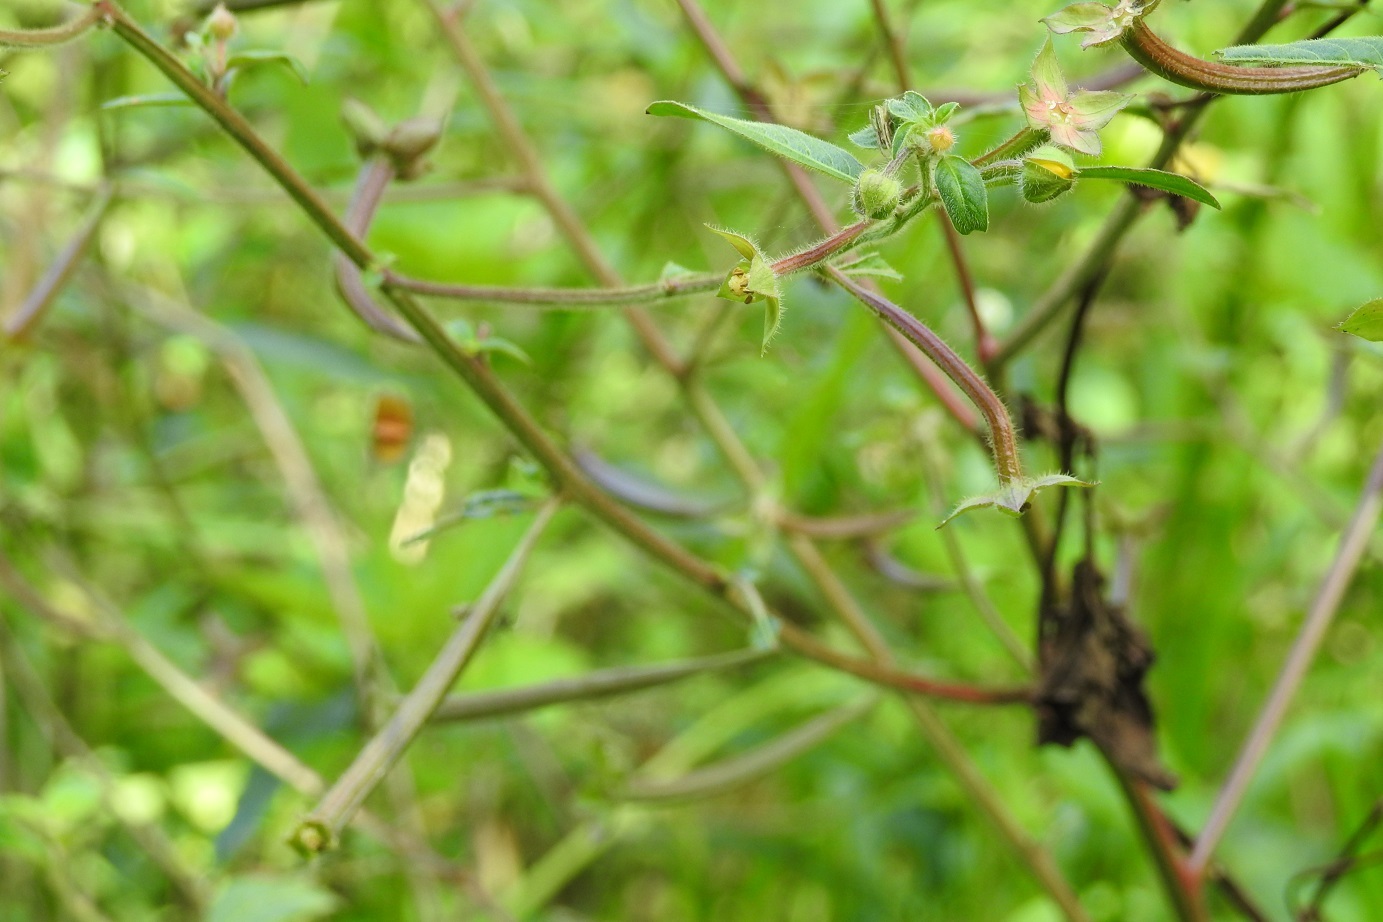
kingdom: Plantae
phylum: Tracheophyta
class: Magnoliopsida
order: Myrtales
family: Onagraceae
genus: Ludwigia
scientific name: Ludwigia peploides
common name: Floating primrose-willow
